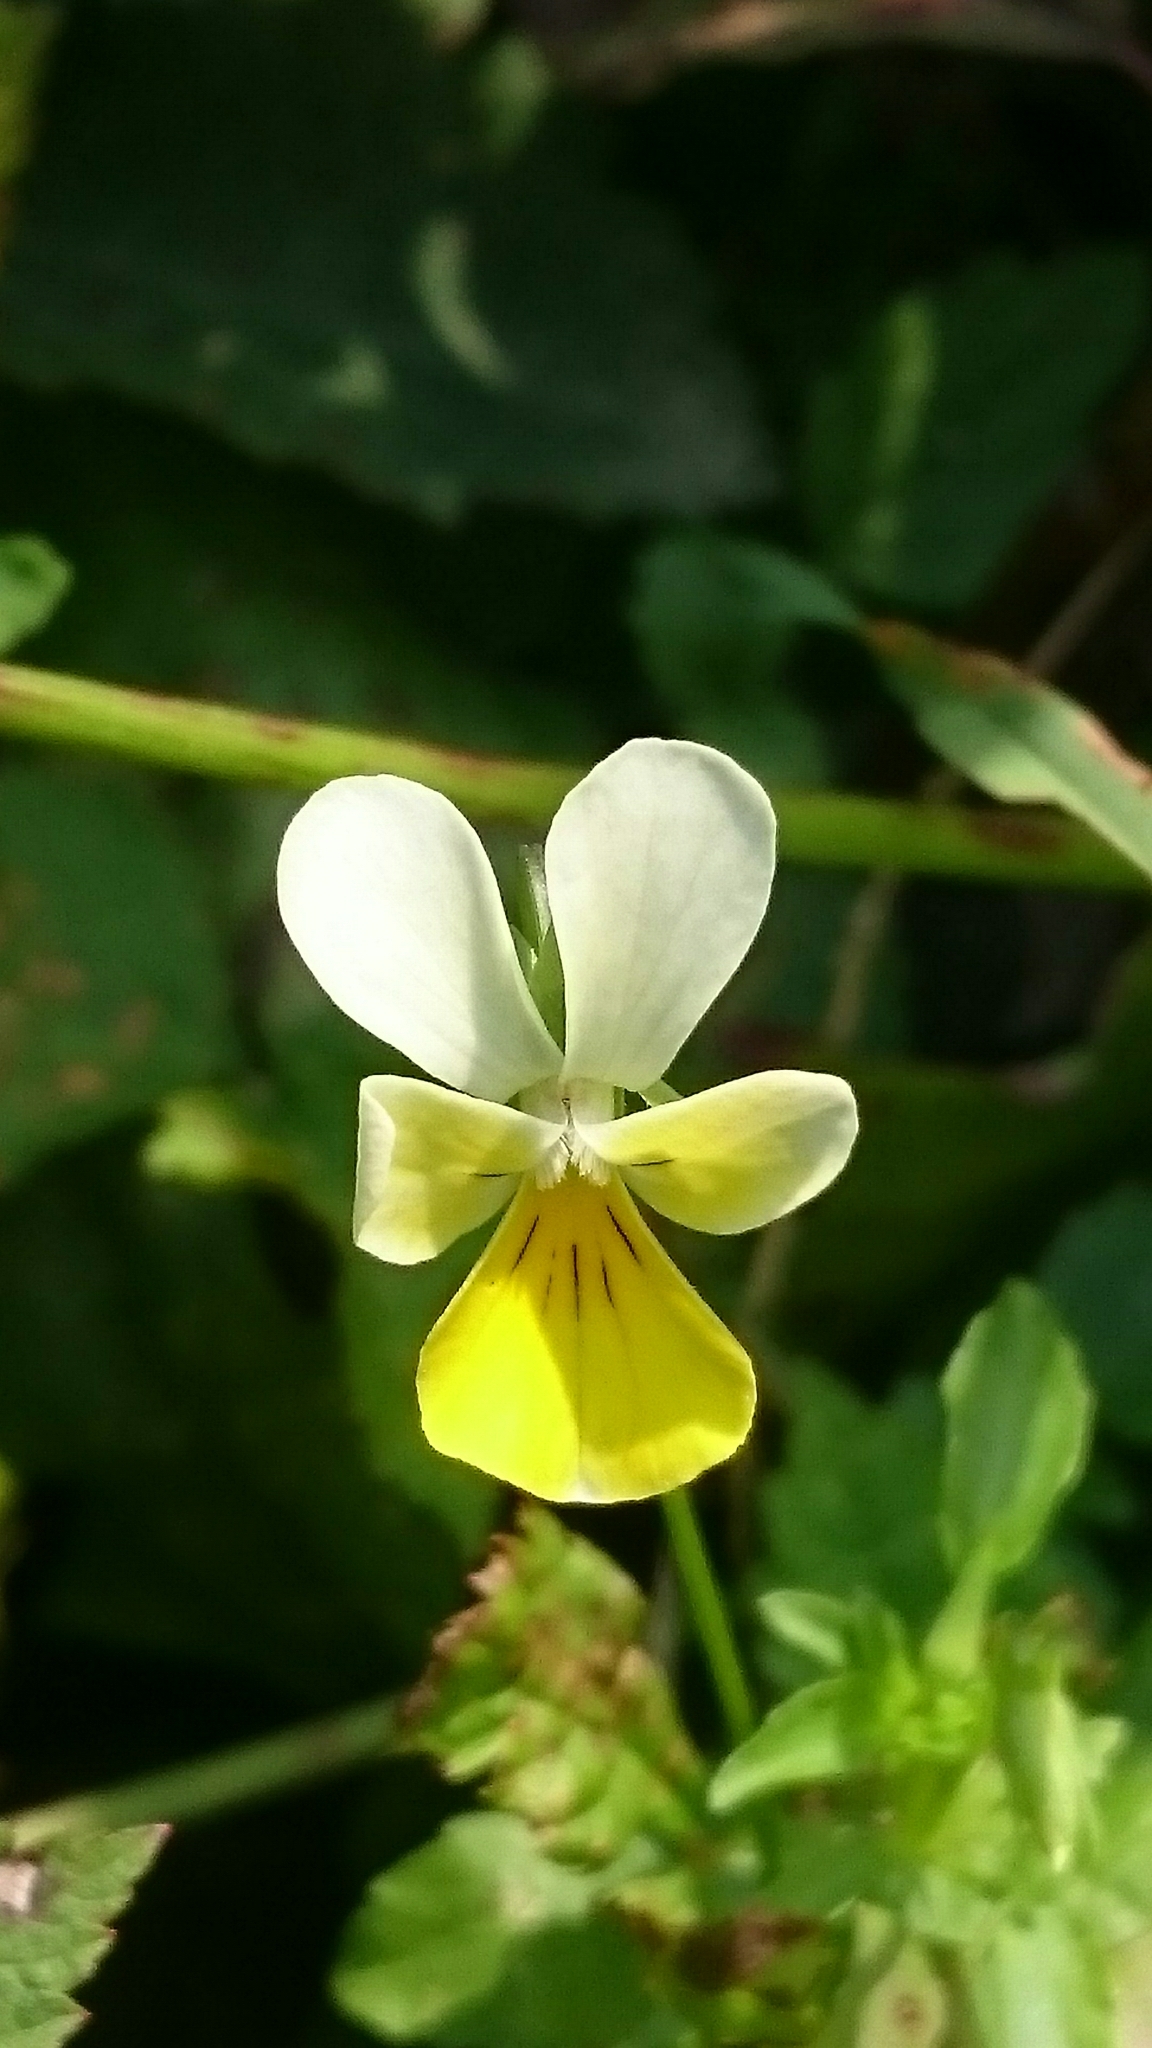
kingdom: Plantae
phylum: Tracheophyta
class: Magnoliopsida
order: Malpighiales
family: Violaceae
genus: Viola
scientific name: Viola arvensis
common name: Field pansy
